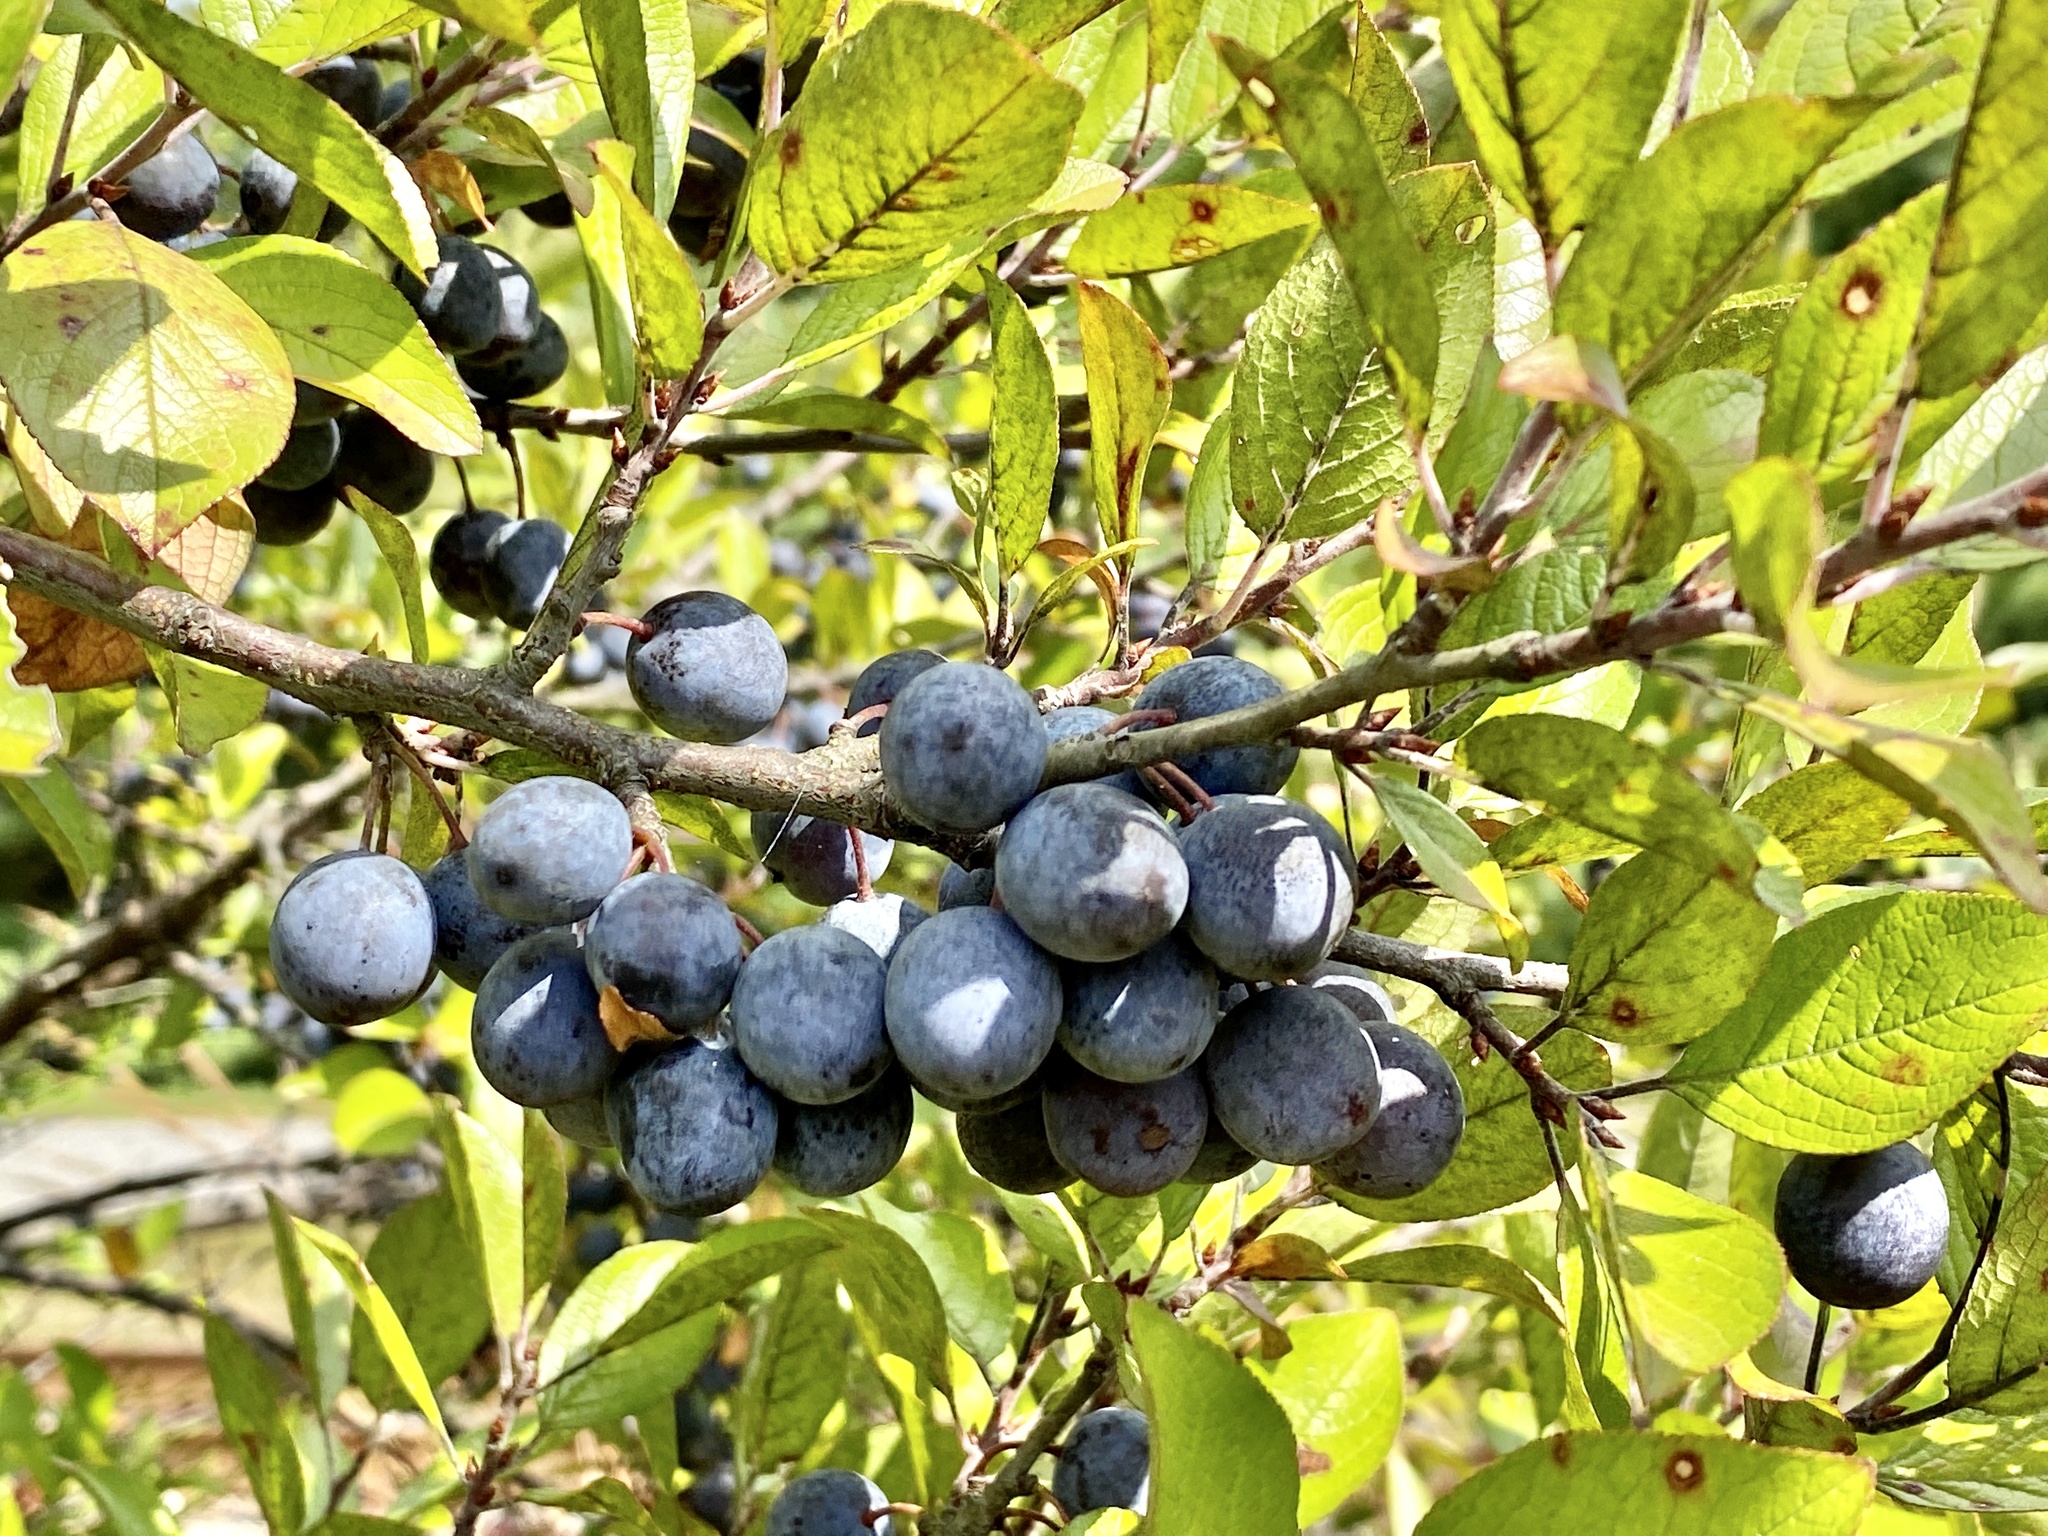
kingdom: Plantae
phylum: Tracheophyta
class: Magnoliopsida
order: Rosales
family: Rosaceae
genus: Prunus
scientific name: Prunus maritima
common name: Beach plum
